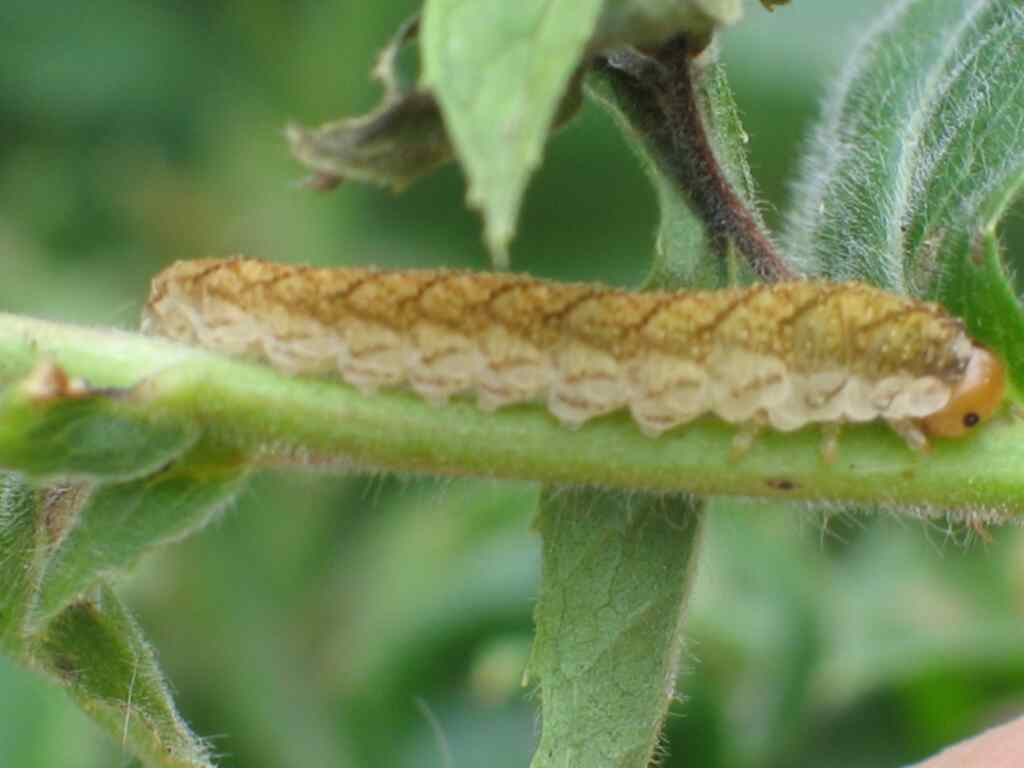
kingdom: Animalia
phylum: Arthropoda
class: Insecta
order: Hymenoptera
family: Tenthredinidae
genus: Tenthredo
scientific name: Tenthredo colon
